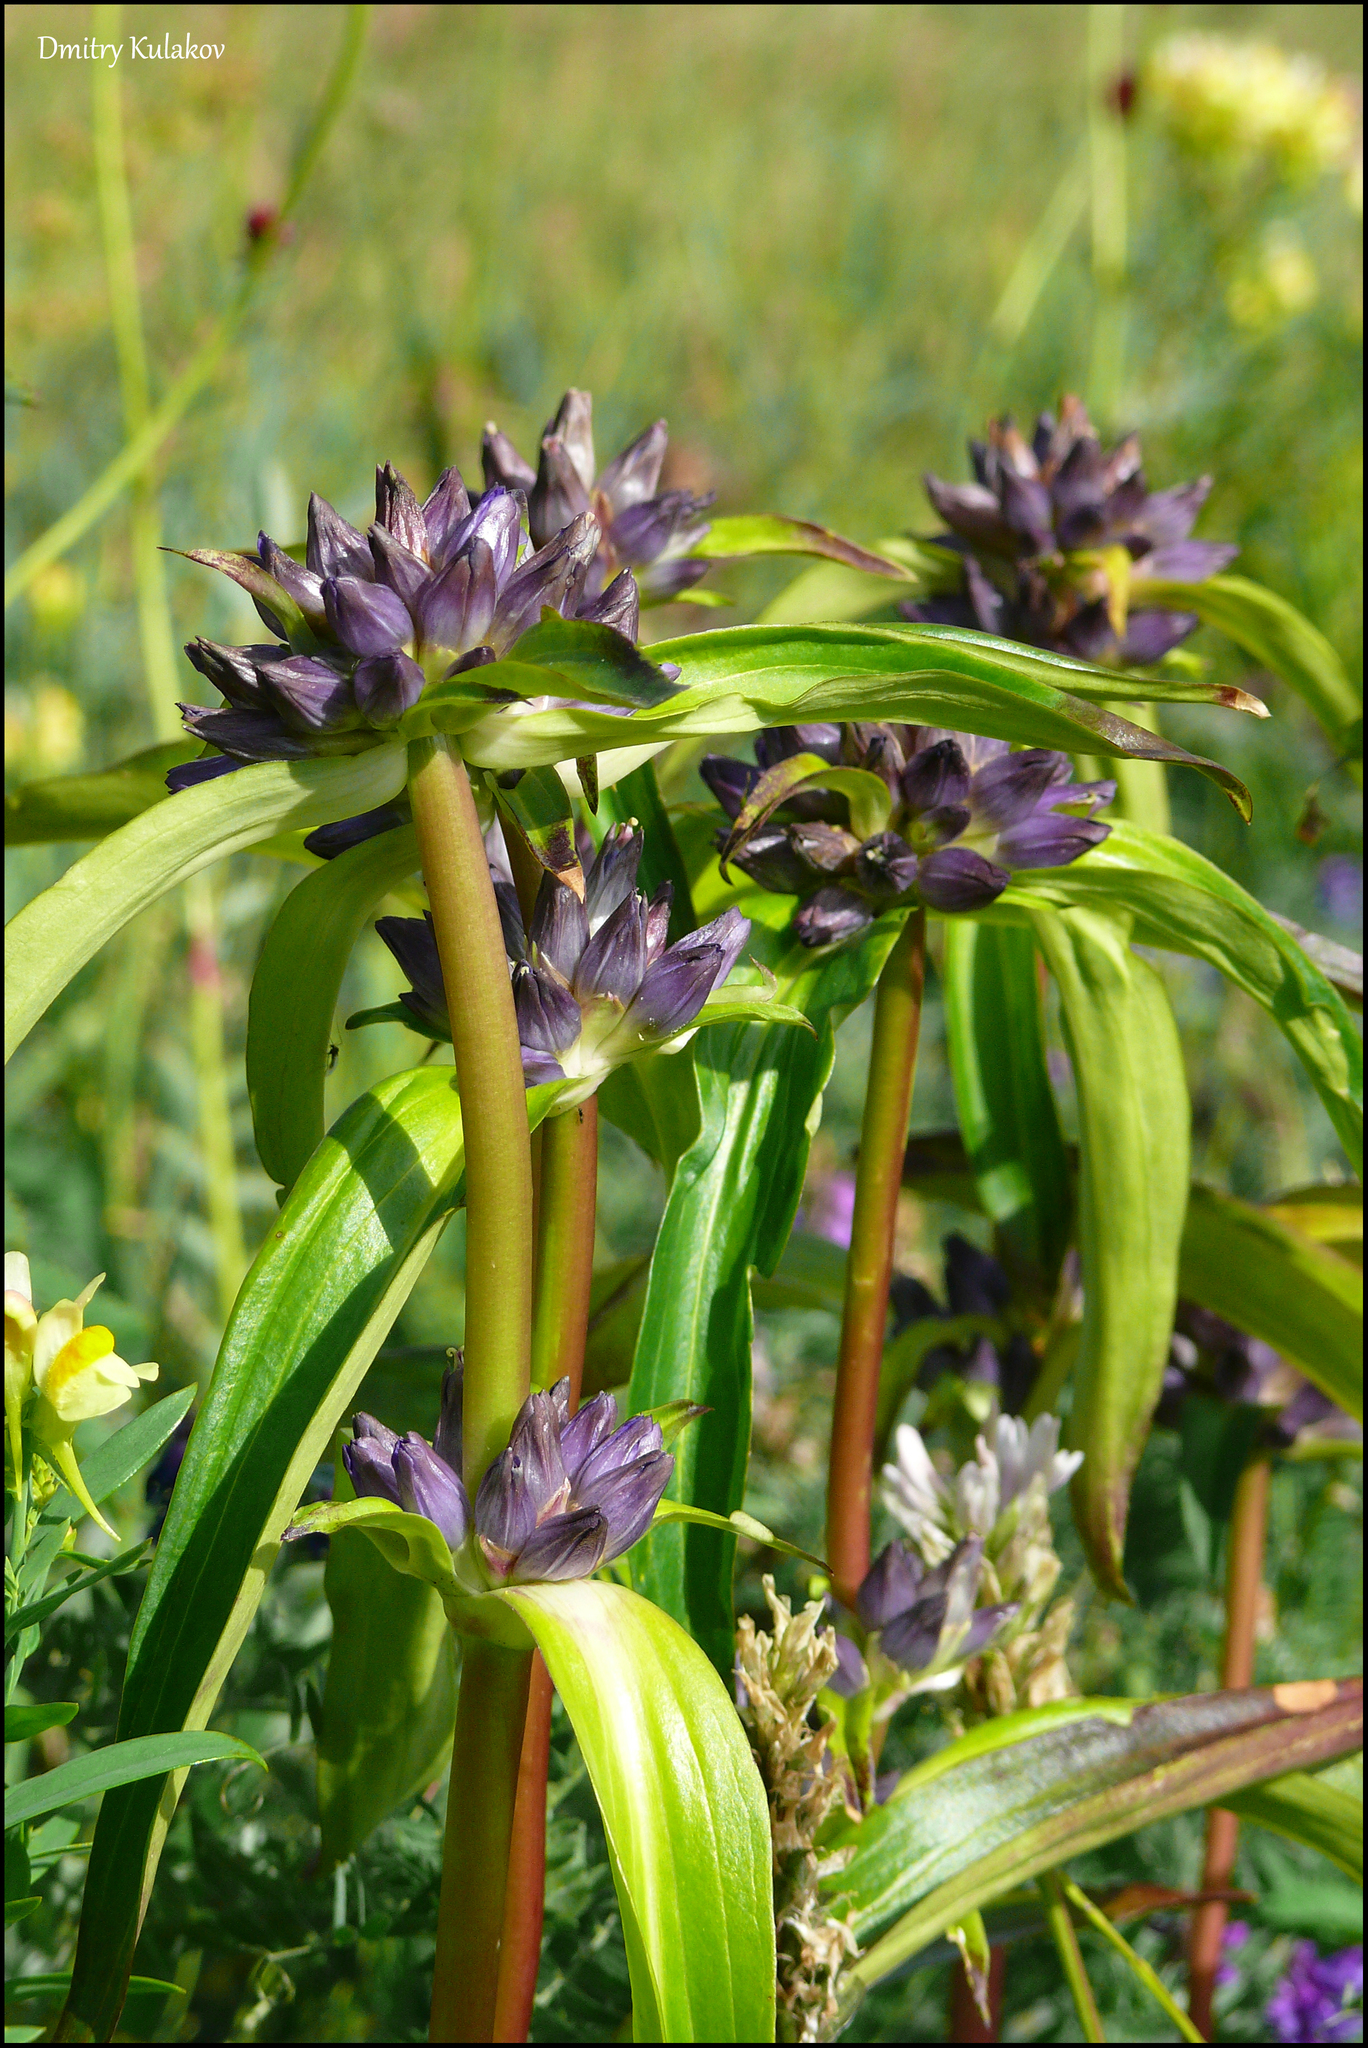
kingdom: Plantae
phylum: Tracheophyta
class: Magnoliopsida
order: Gentianales
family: Gentianaceae
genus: Gentiana
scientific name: Gentiana macrophylla
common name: Large-leaf gentian
